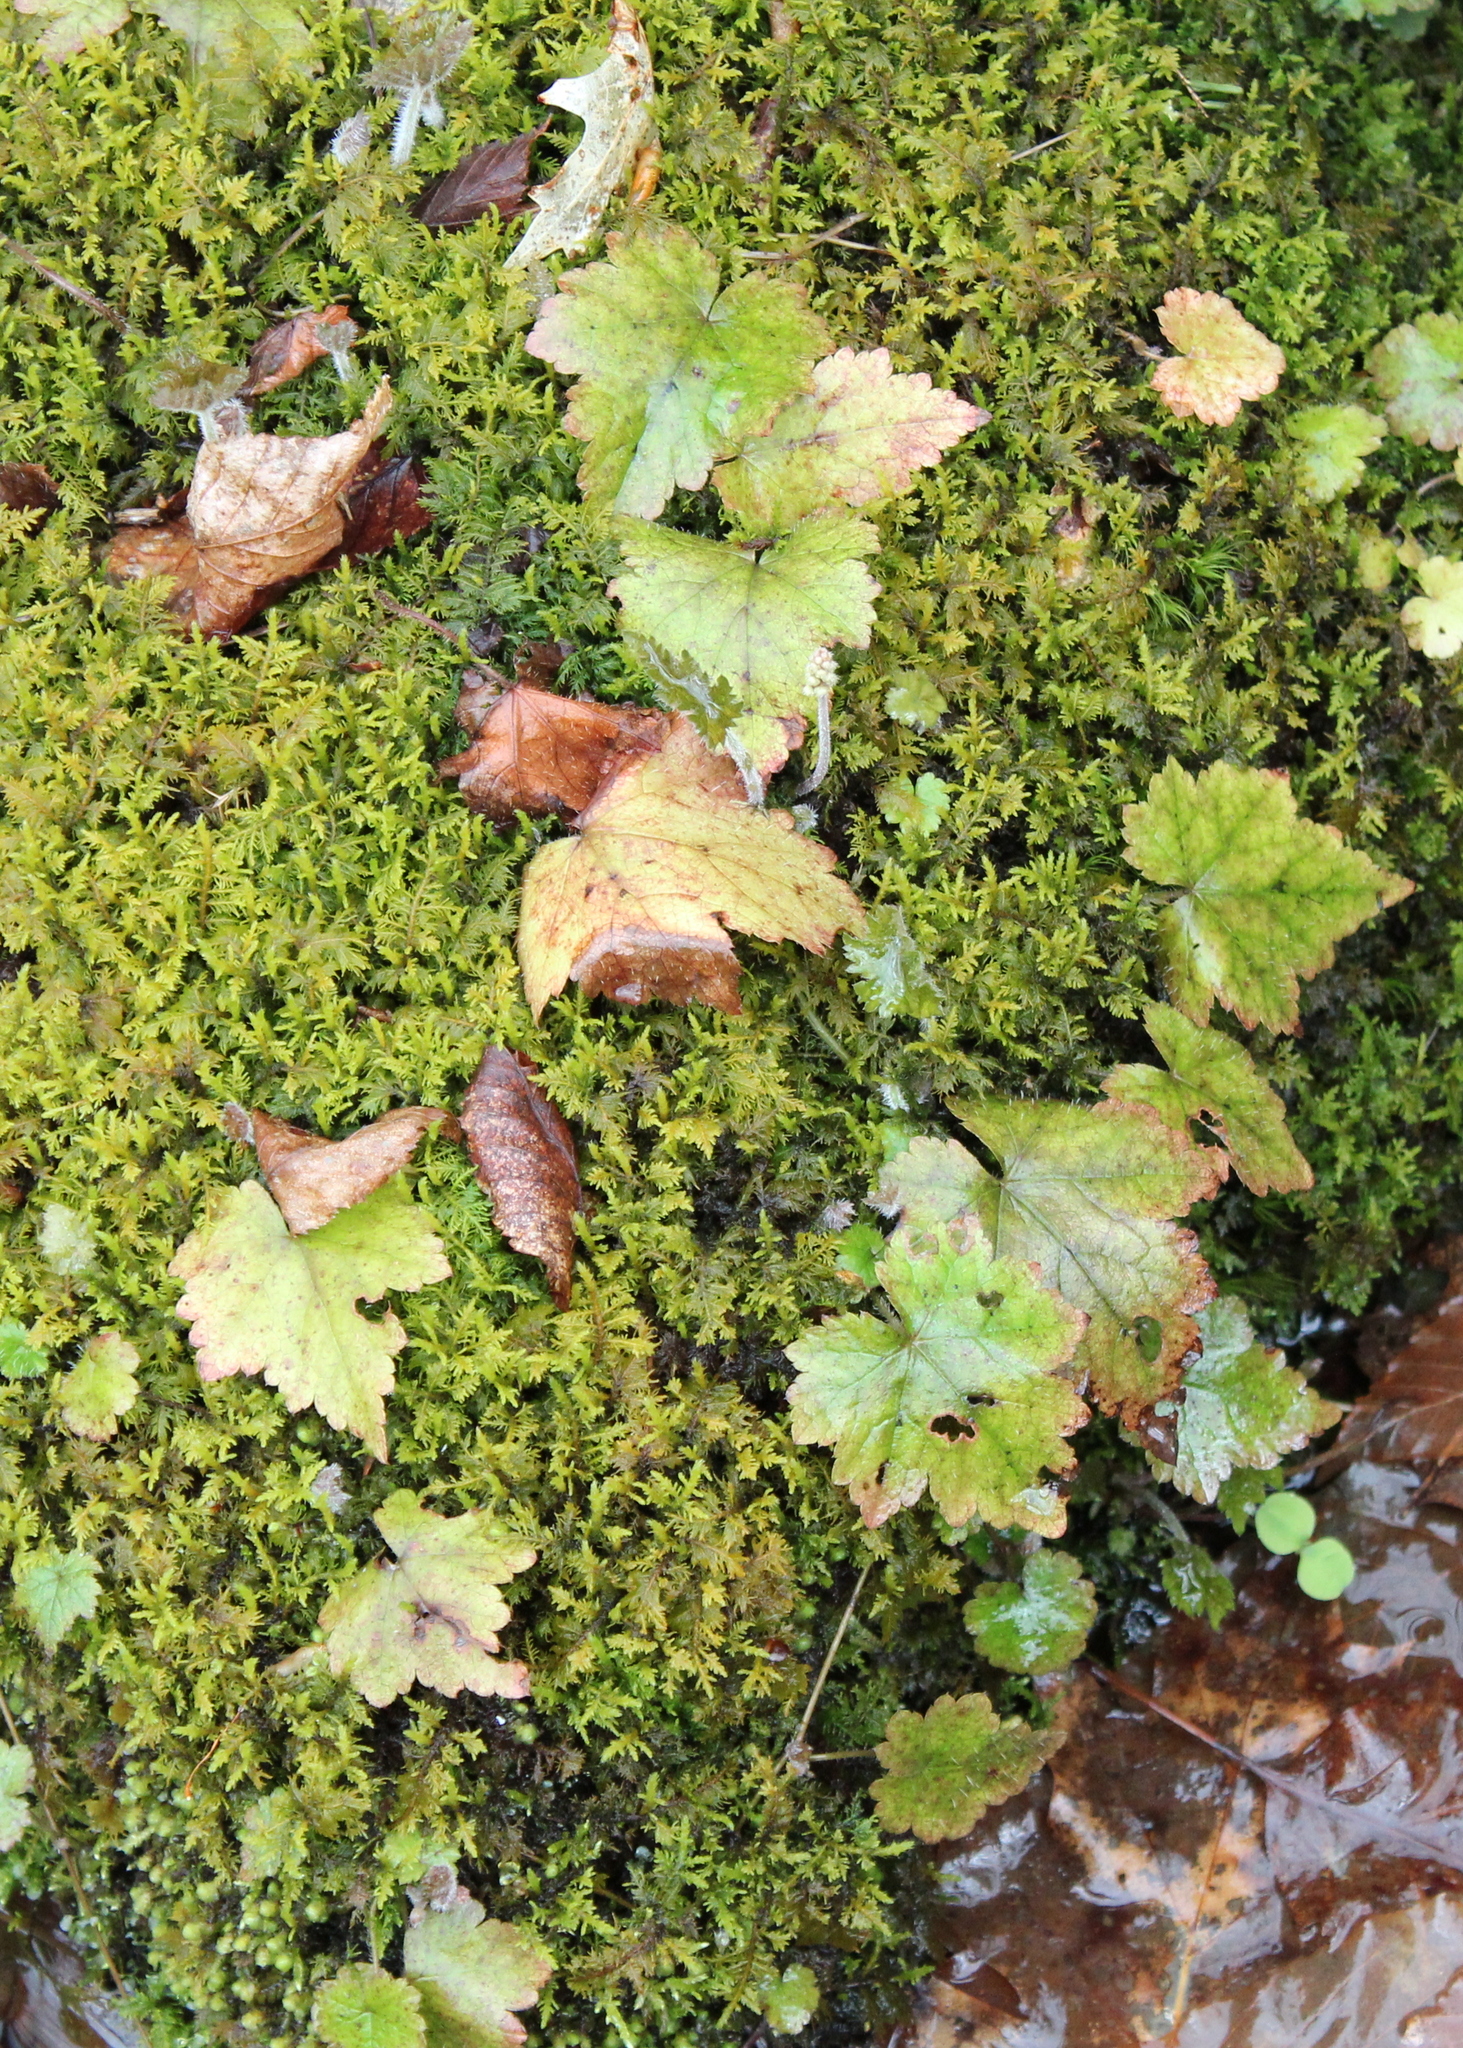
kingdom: Plantae
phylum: Tracheophyta
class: Magnoliopsida
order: Saxifragales
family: Saxifragaceae
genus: Tiarella
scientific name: Tiarella stolonifera
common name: Stoloniferous foamflower
